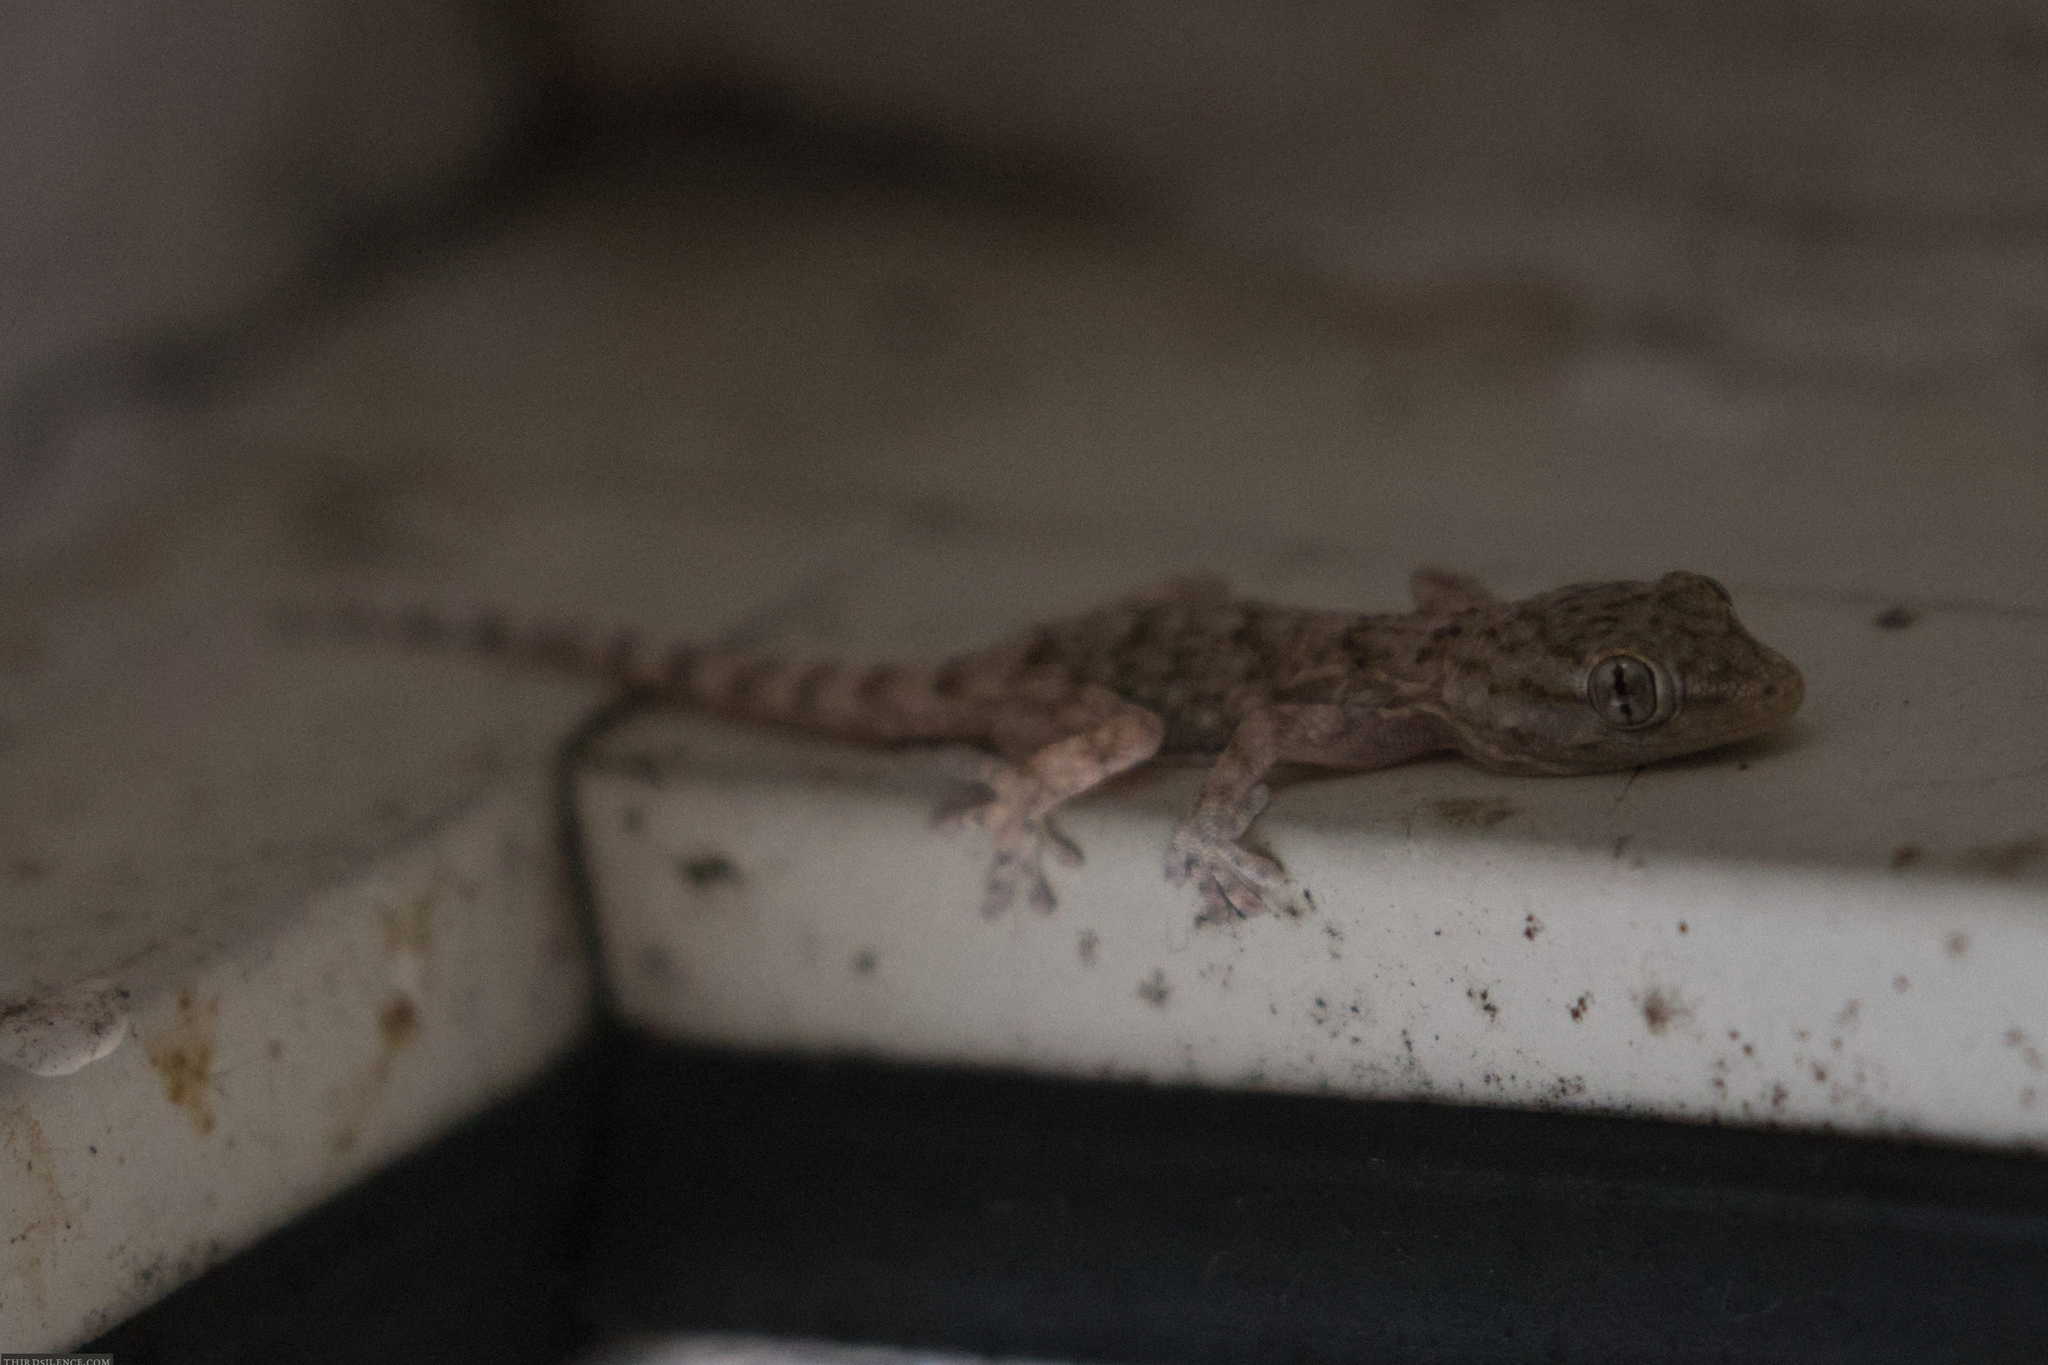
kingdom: Animalia
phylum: Chordata
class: Squamata
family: Phyllodactylidae
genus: Tarentola
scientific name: Tarentola mauritanica
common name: Moorish gecko
